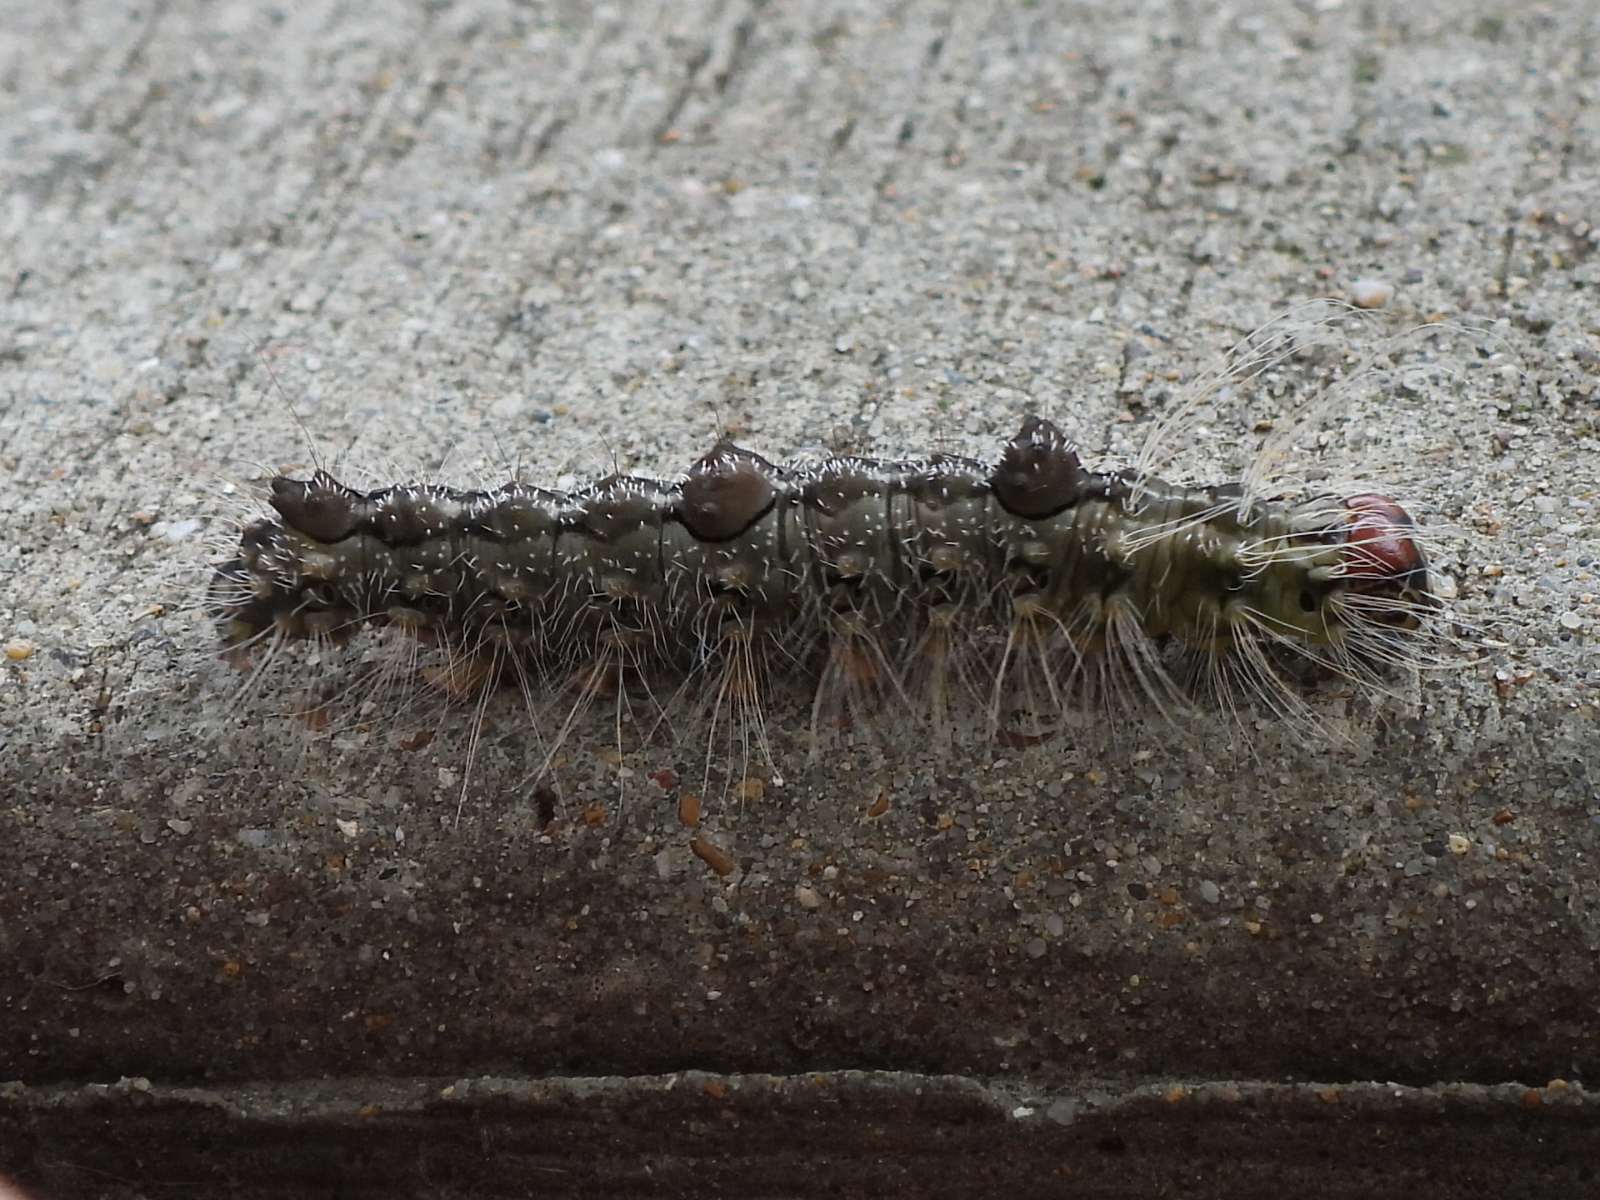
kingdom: Animalia
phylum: Arthropoda
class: Insecta
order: Lepidoptera
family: Noctuidae
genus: Acronicta
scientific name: Acronicta morula
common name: Ochre dagger
